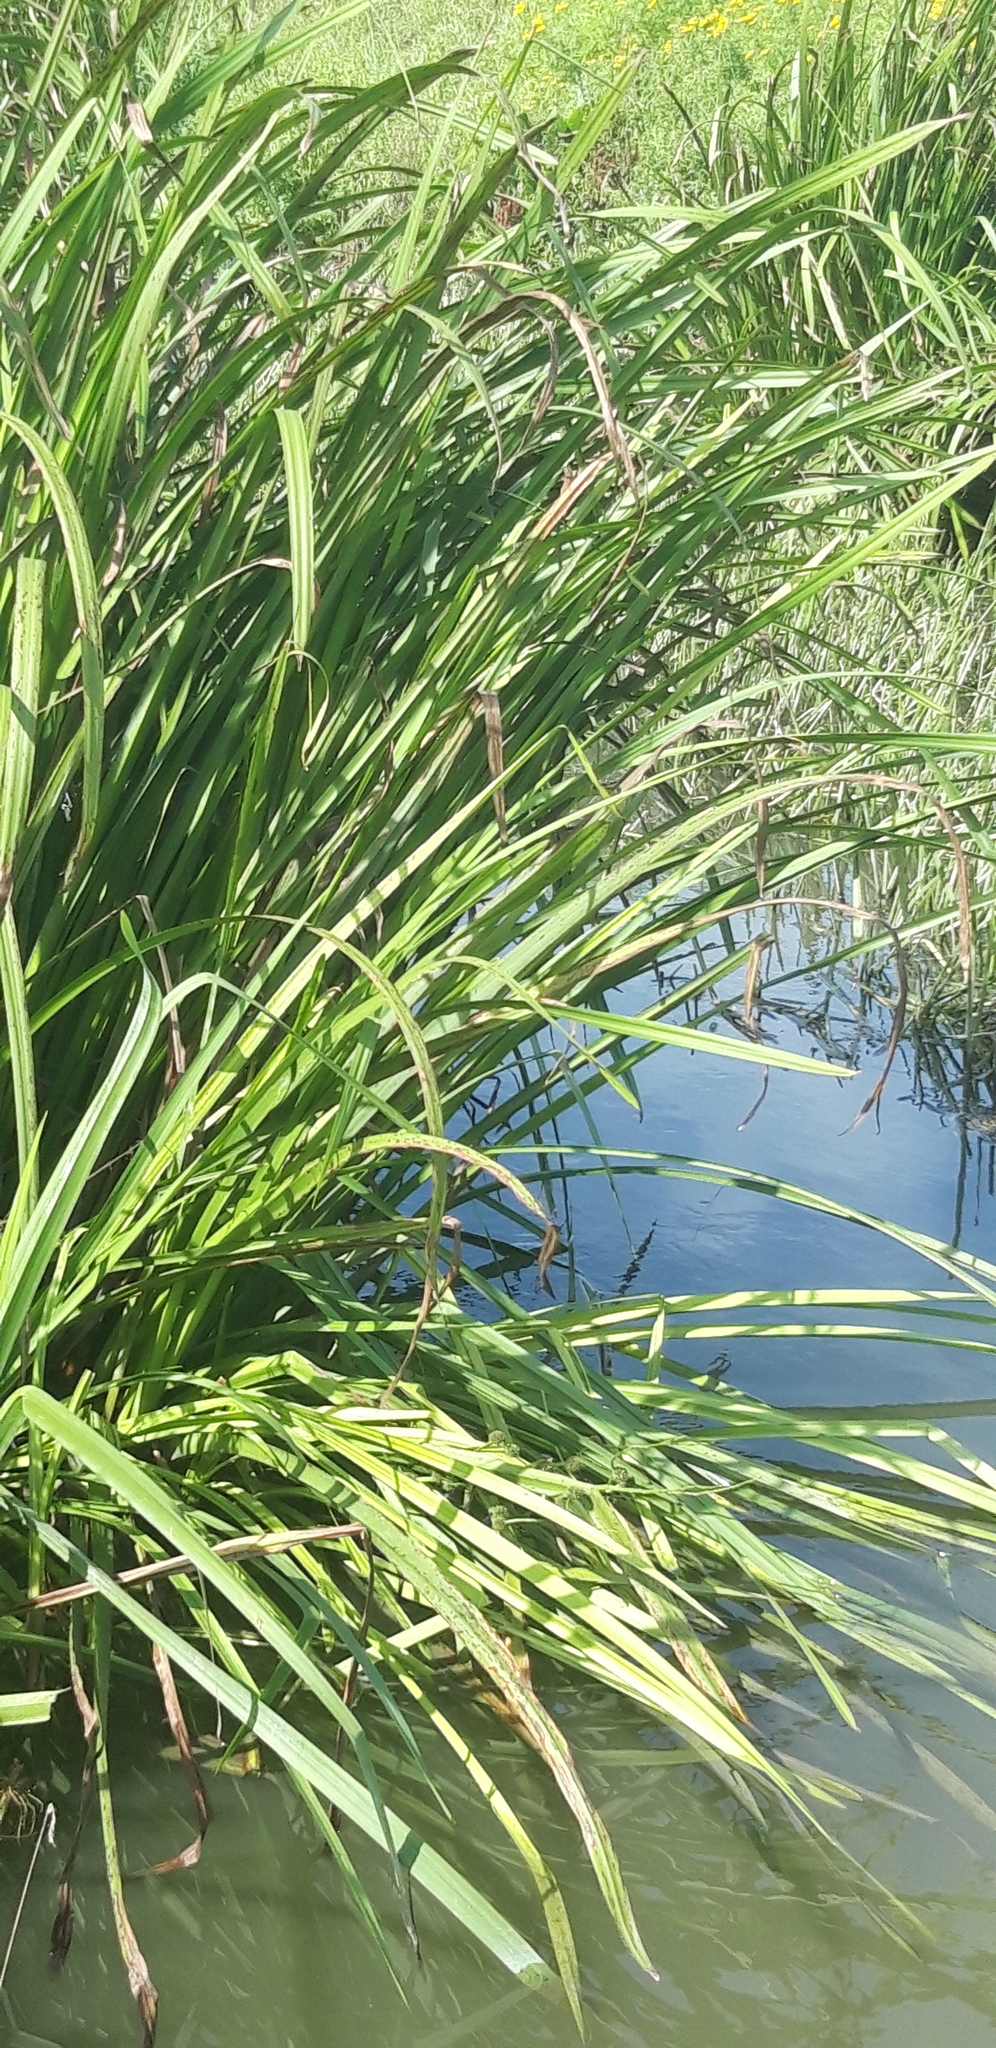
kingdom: Plantae
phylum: Tracheophyta
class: Liliopsida
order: Poales
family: Typhaceae
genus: Sparganium
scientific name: Sparganium erectum
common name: Branched bur-reed
